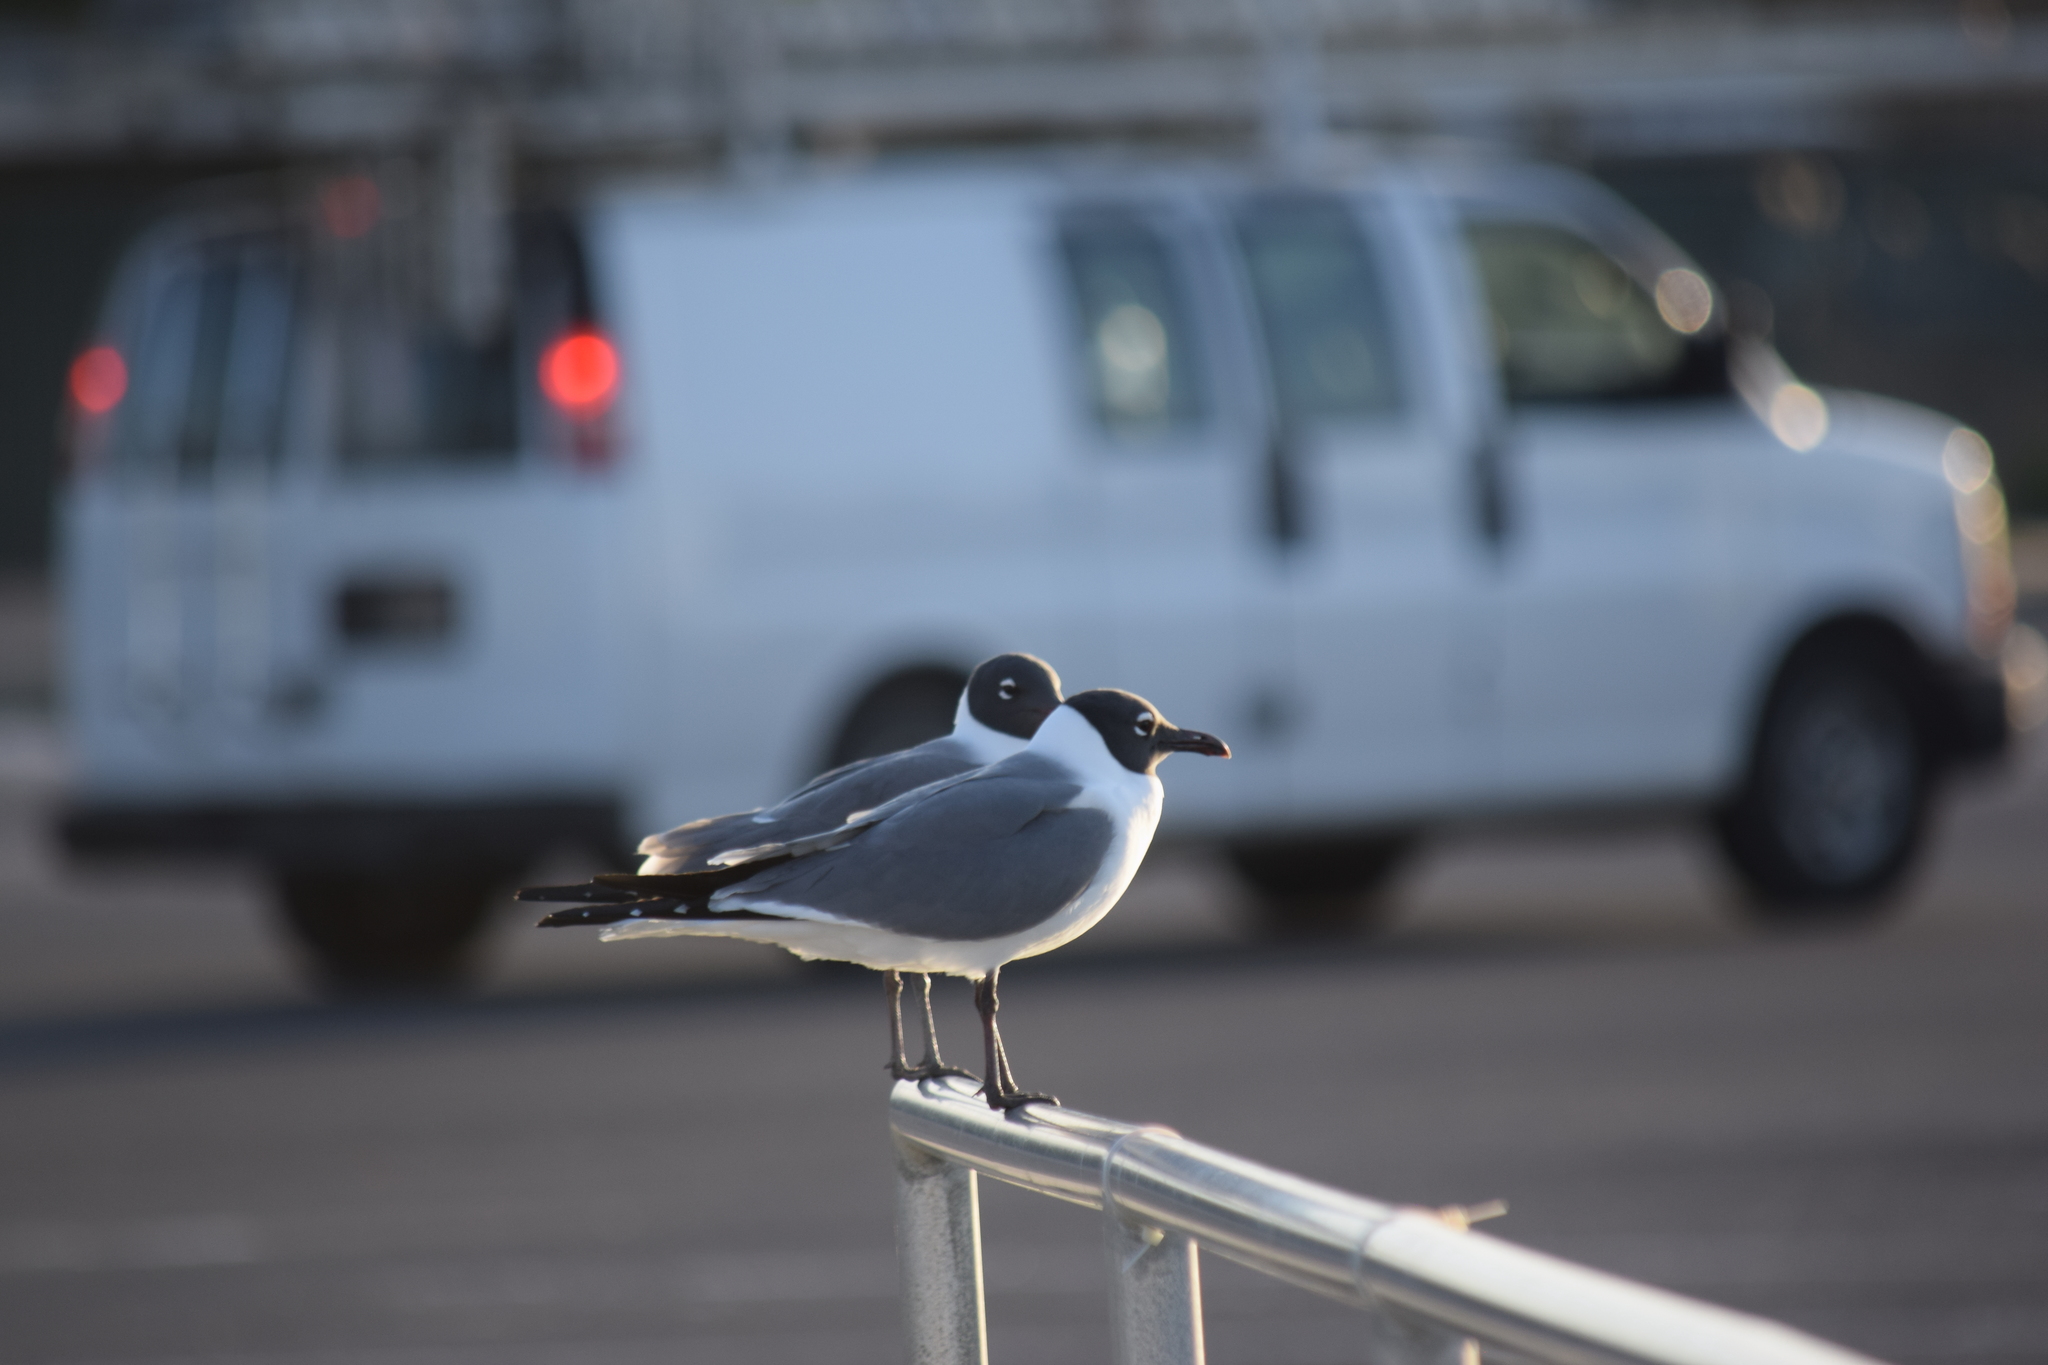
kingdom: Animalia
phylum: Chordata
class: Aves
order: Charadriiformes
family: Laridae
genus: Leucophaeus
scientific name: Leucophaeus atricilla
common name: Laughing gull
